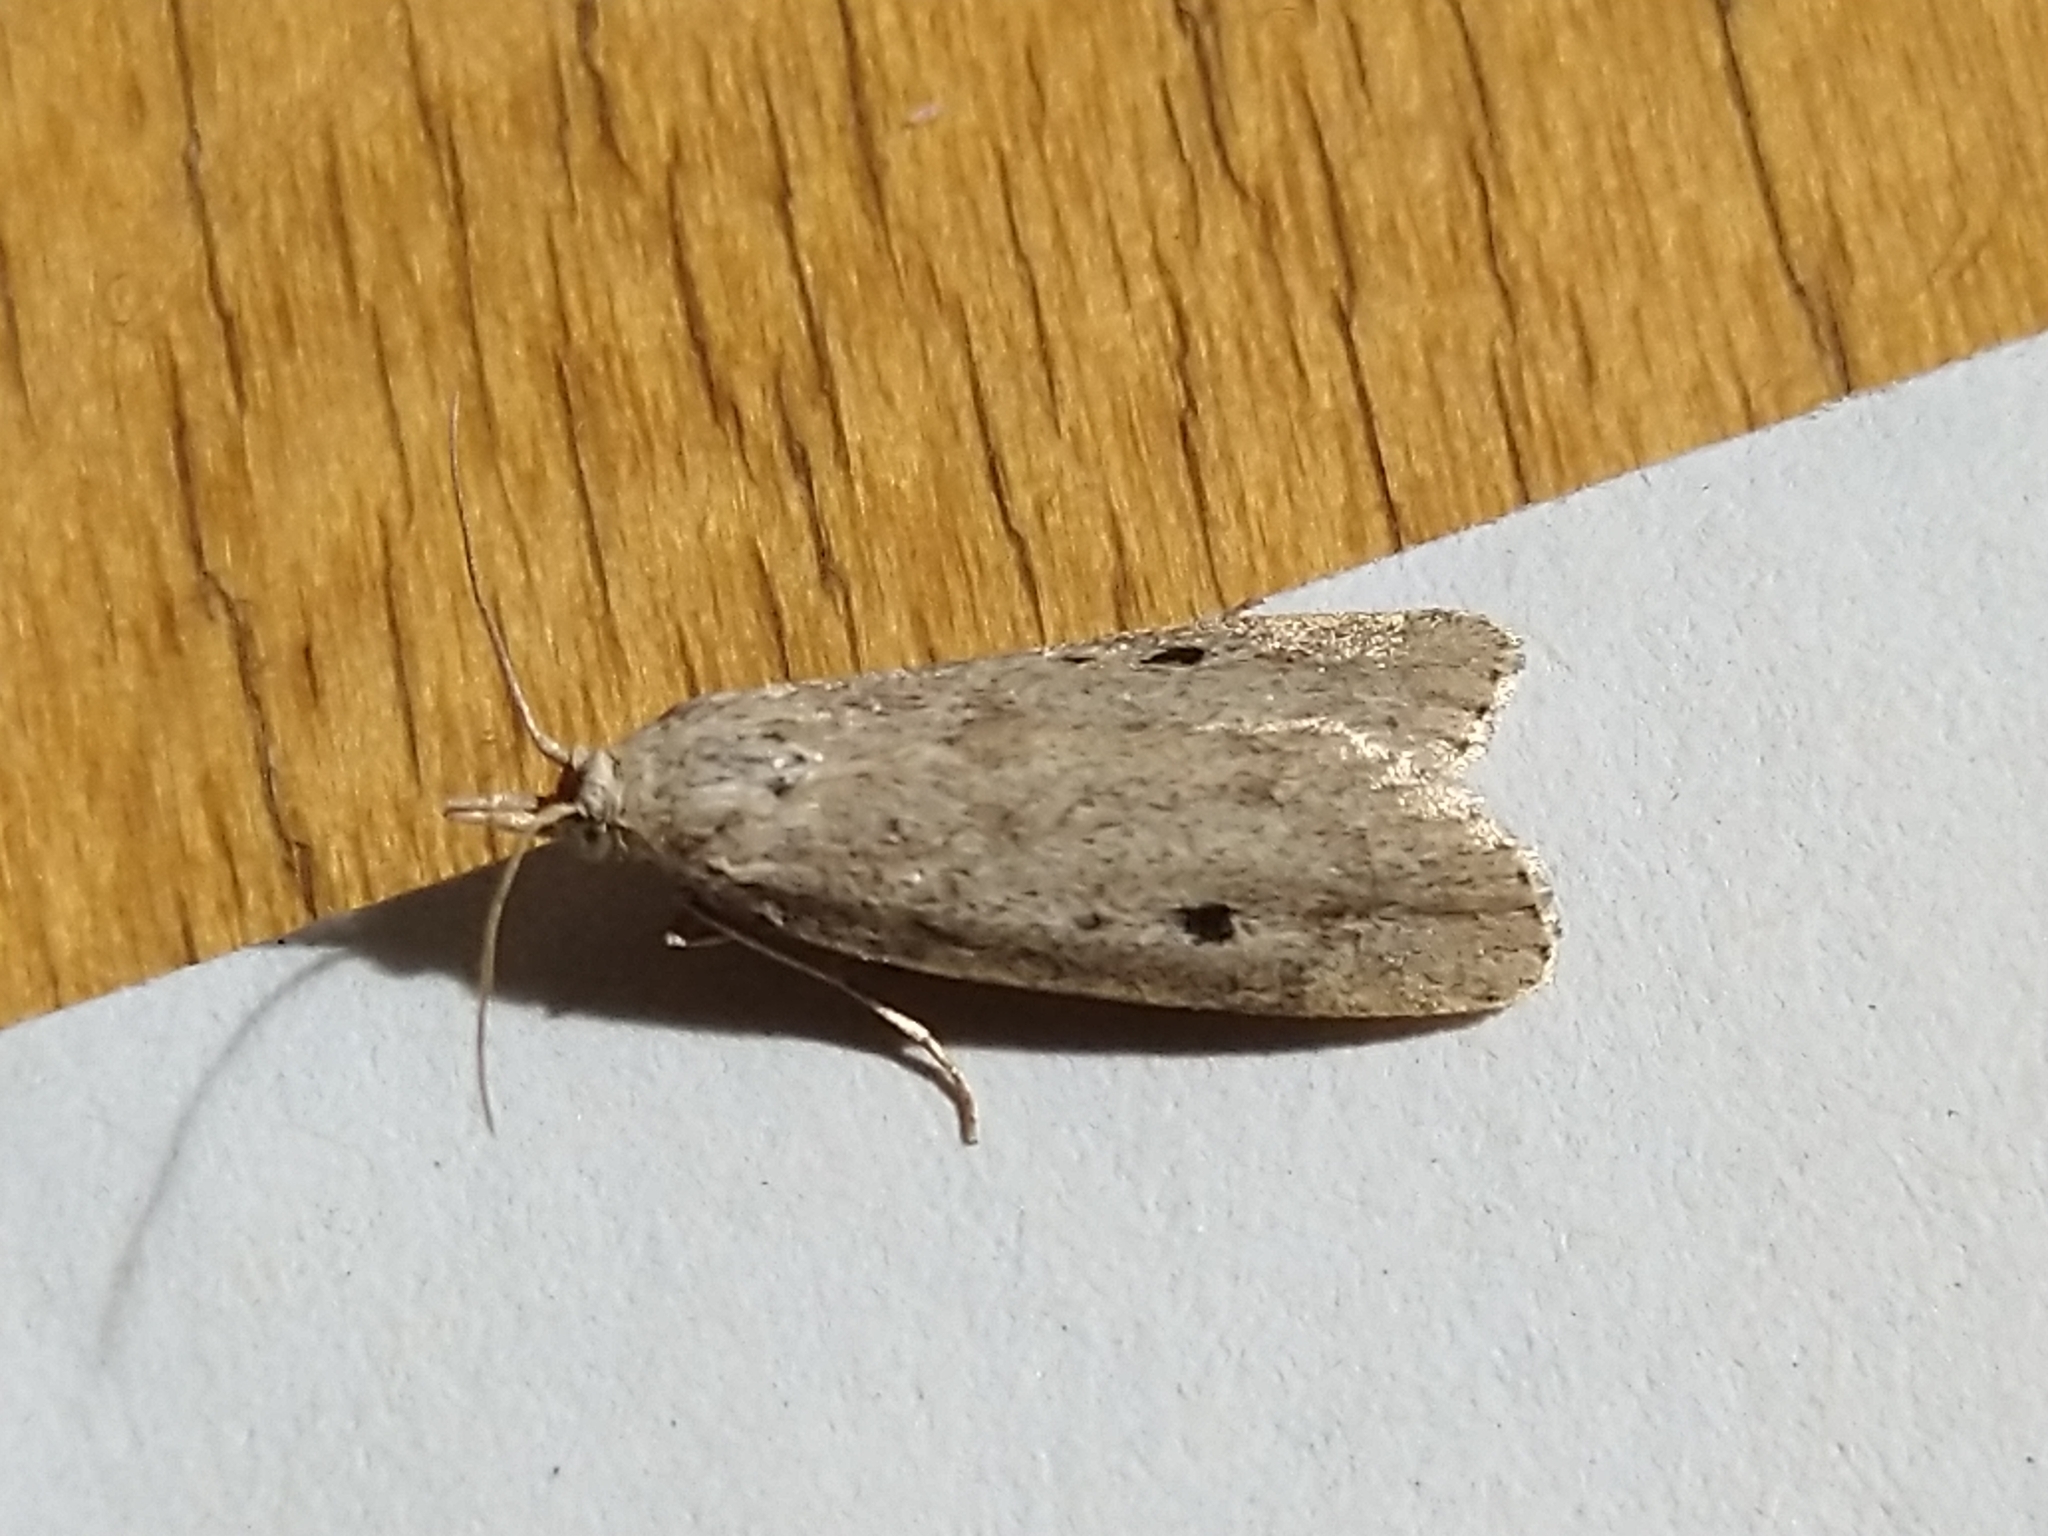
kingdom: Animalia
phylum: Arthropoda
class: Insecta
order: Lepidoptera
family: Pyralidae
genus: Aphomia
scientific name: Aphomia sociella
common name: Bee moth
